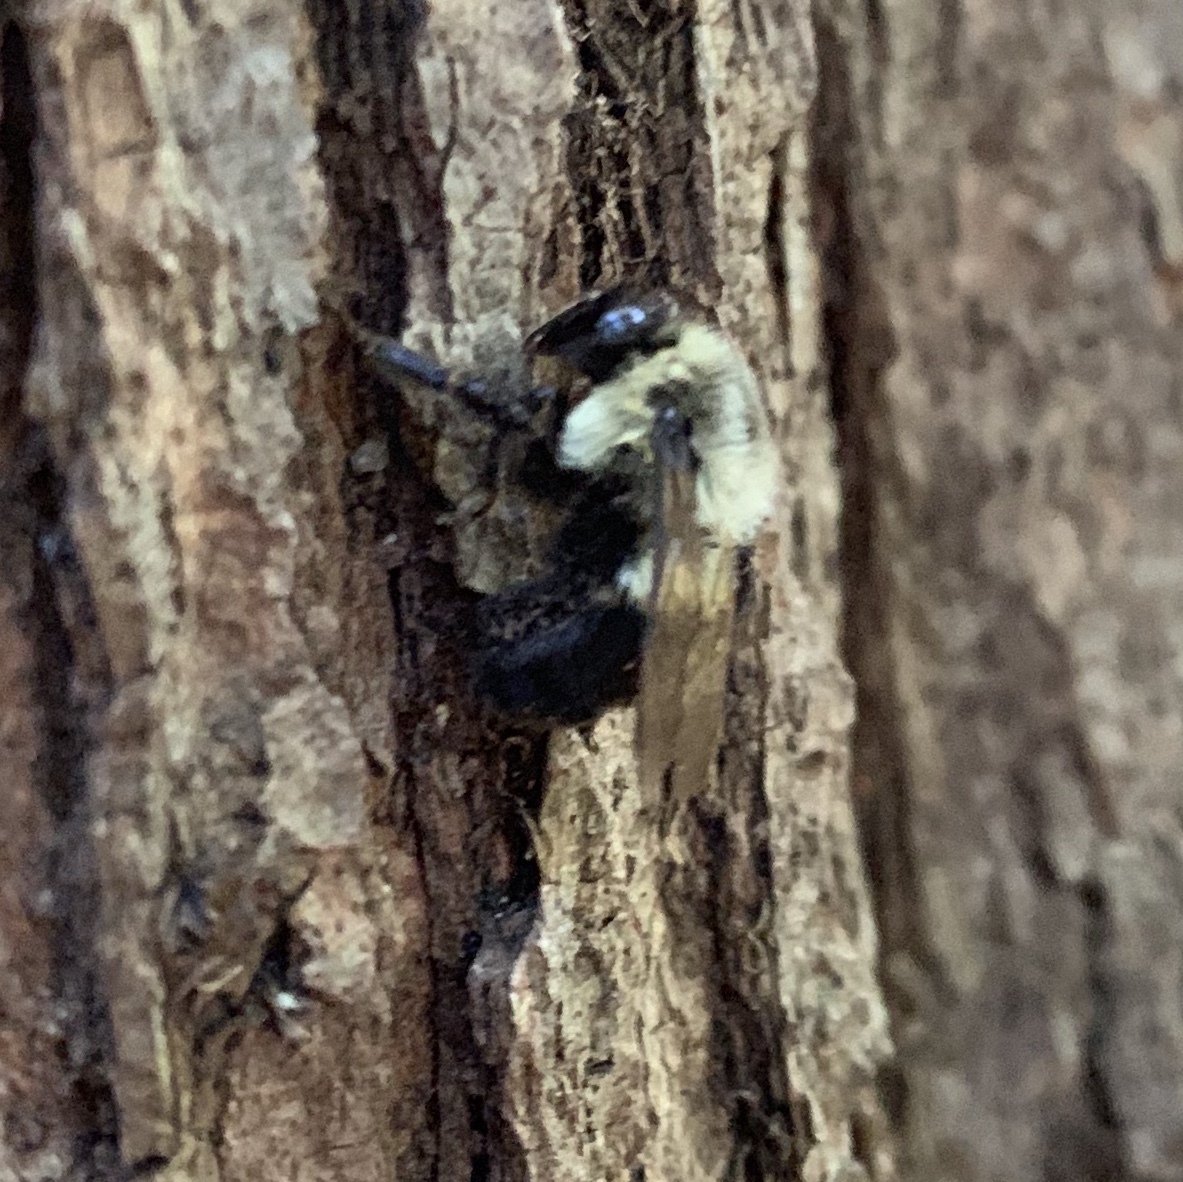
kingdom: Animalia
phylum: Arthropoda
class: Insecta
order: Hymenoptera
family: Apidae
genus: Bombus
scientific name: Bombus impatiens
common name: Common eastern bumble bee
